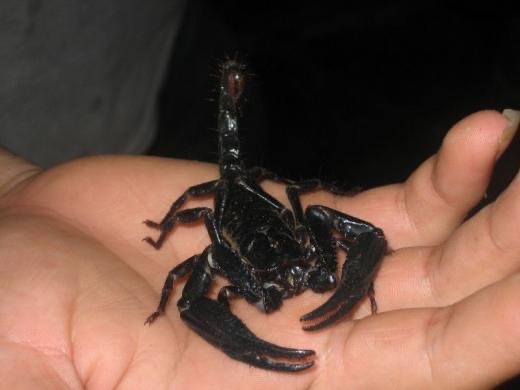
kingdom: Animalia
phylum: Arthropoda
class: Arachnida
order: Scorpiones
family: Scorpionidae
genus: Heterometrus
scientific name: Heterometrus longimanus
